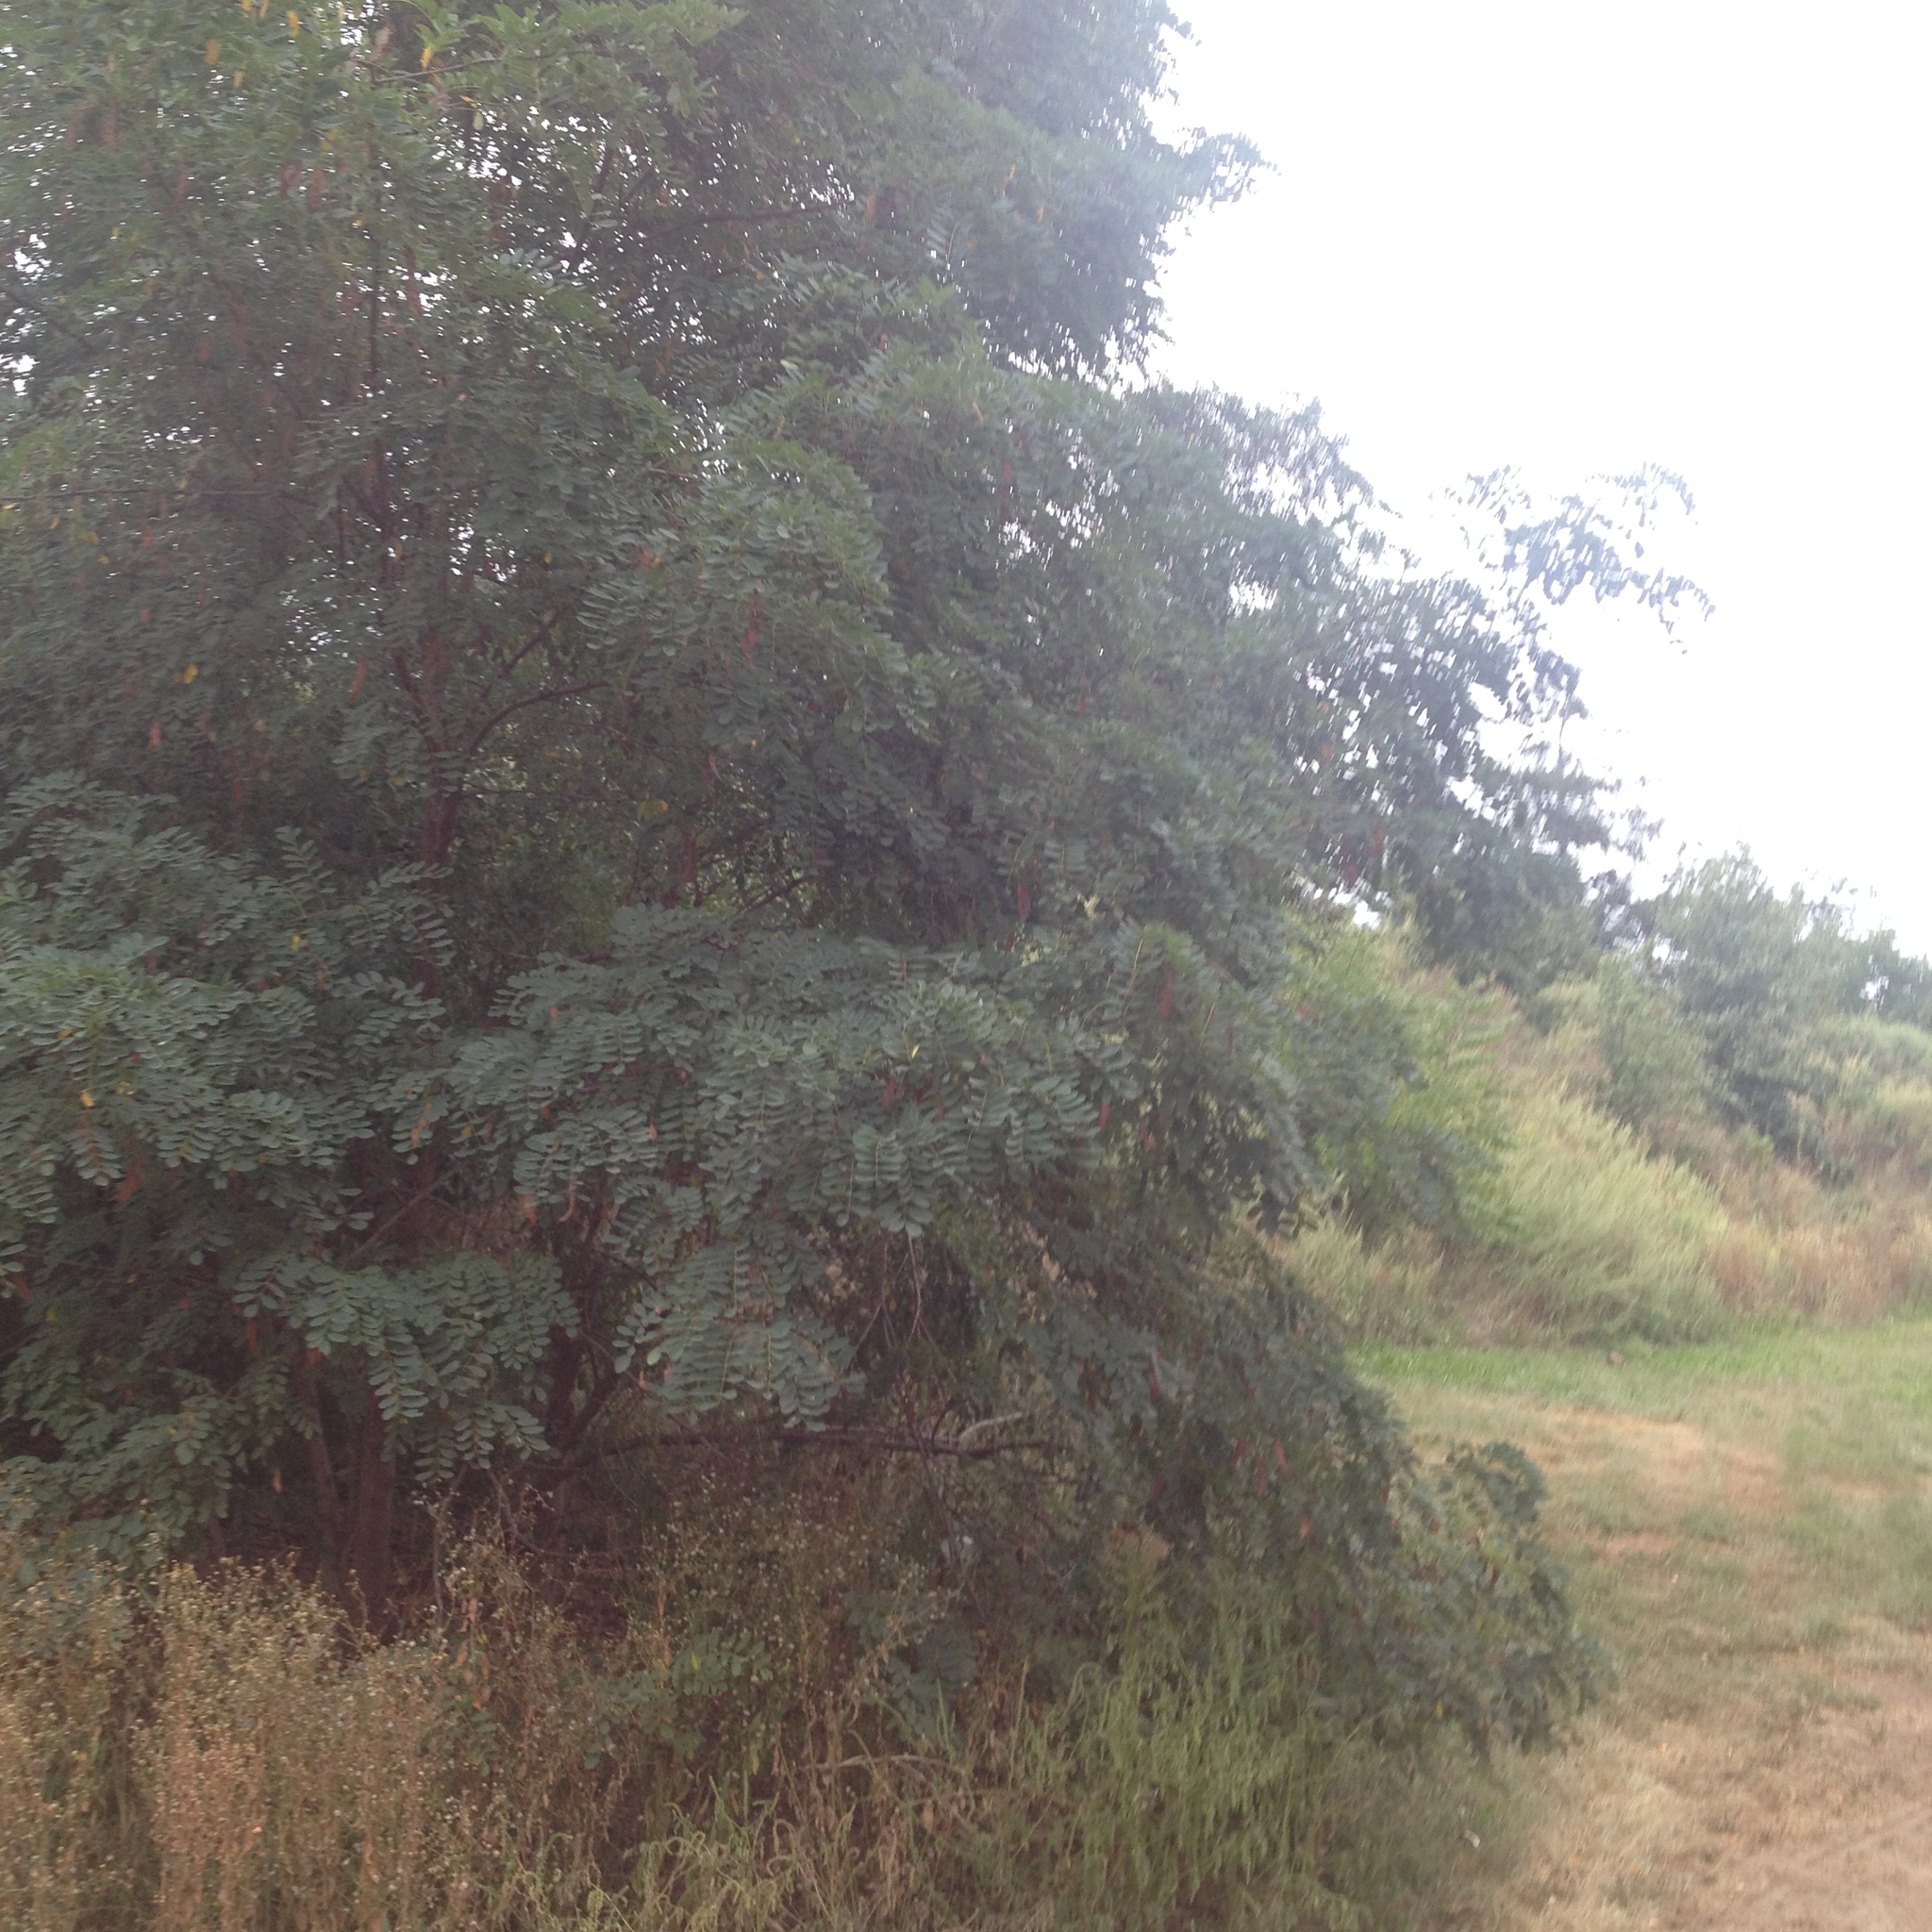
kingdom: Plantae
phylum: Tracheophyta
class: Magnoliopsida
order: Fabales
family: Fabaceae
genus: Robinia
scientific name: Robinia pseudoacacia
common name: Black locust
